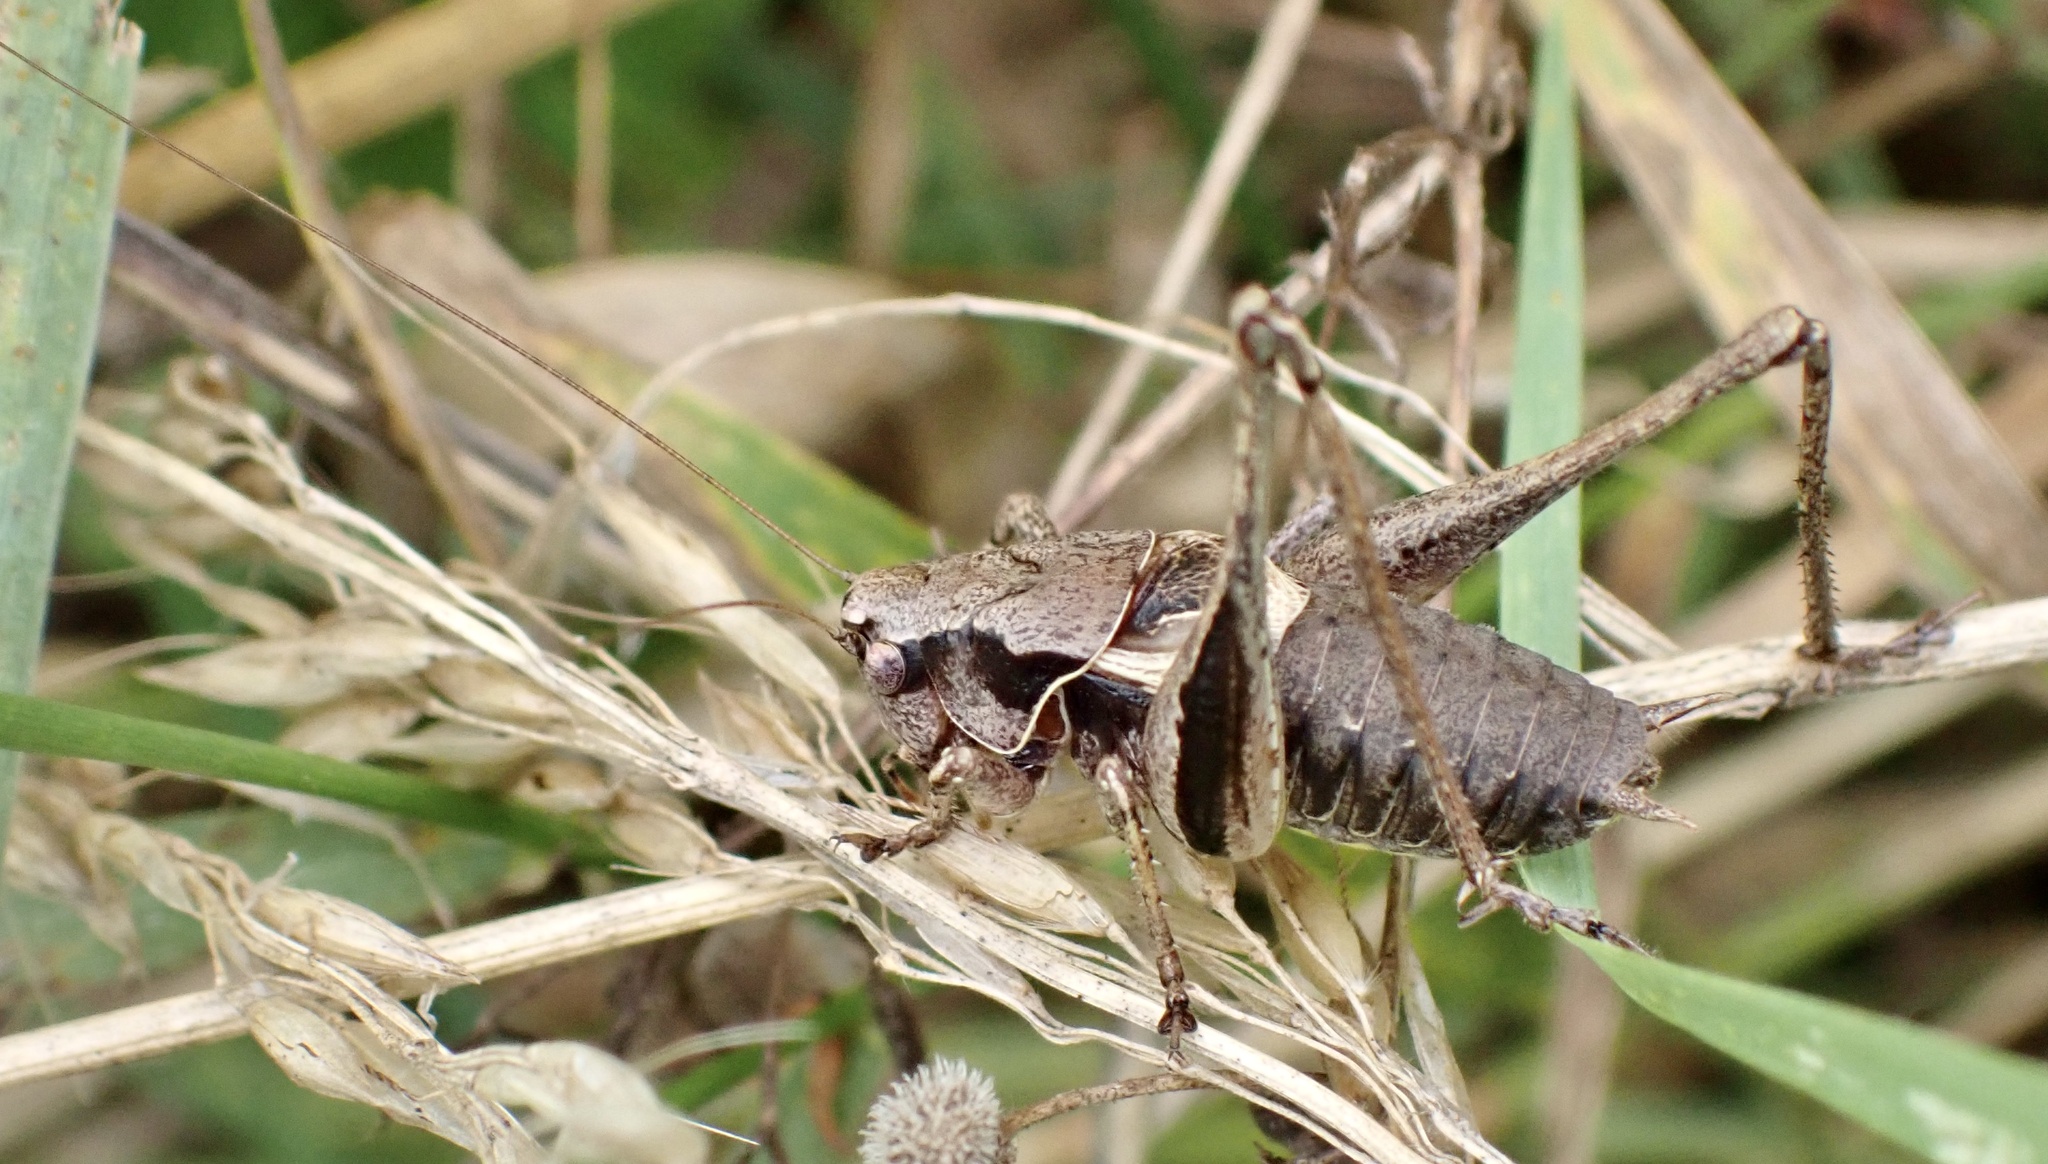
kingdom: Animalia
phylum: Arthropoda
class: Insecta
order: Orthoptera
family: Tettigoniidae
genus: Pholidoptera
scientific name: Pholidoptera griseoaptera
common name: Dark bush-cricket
